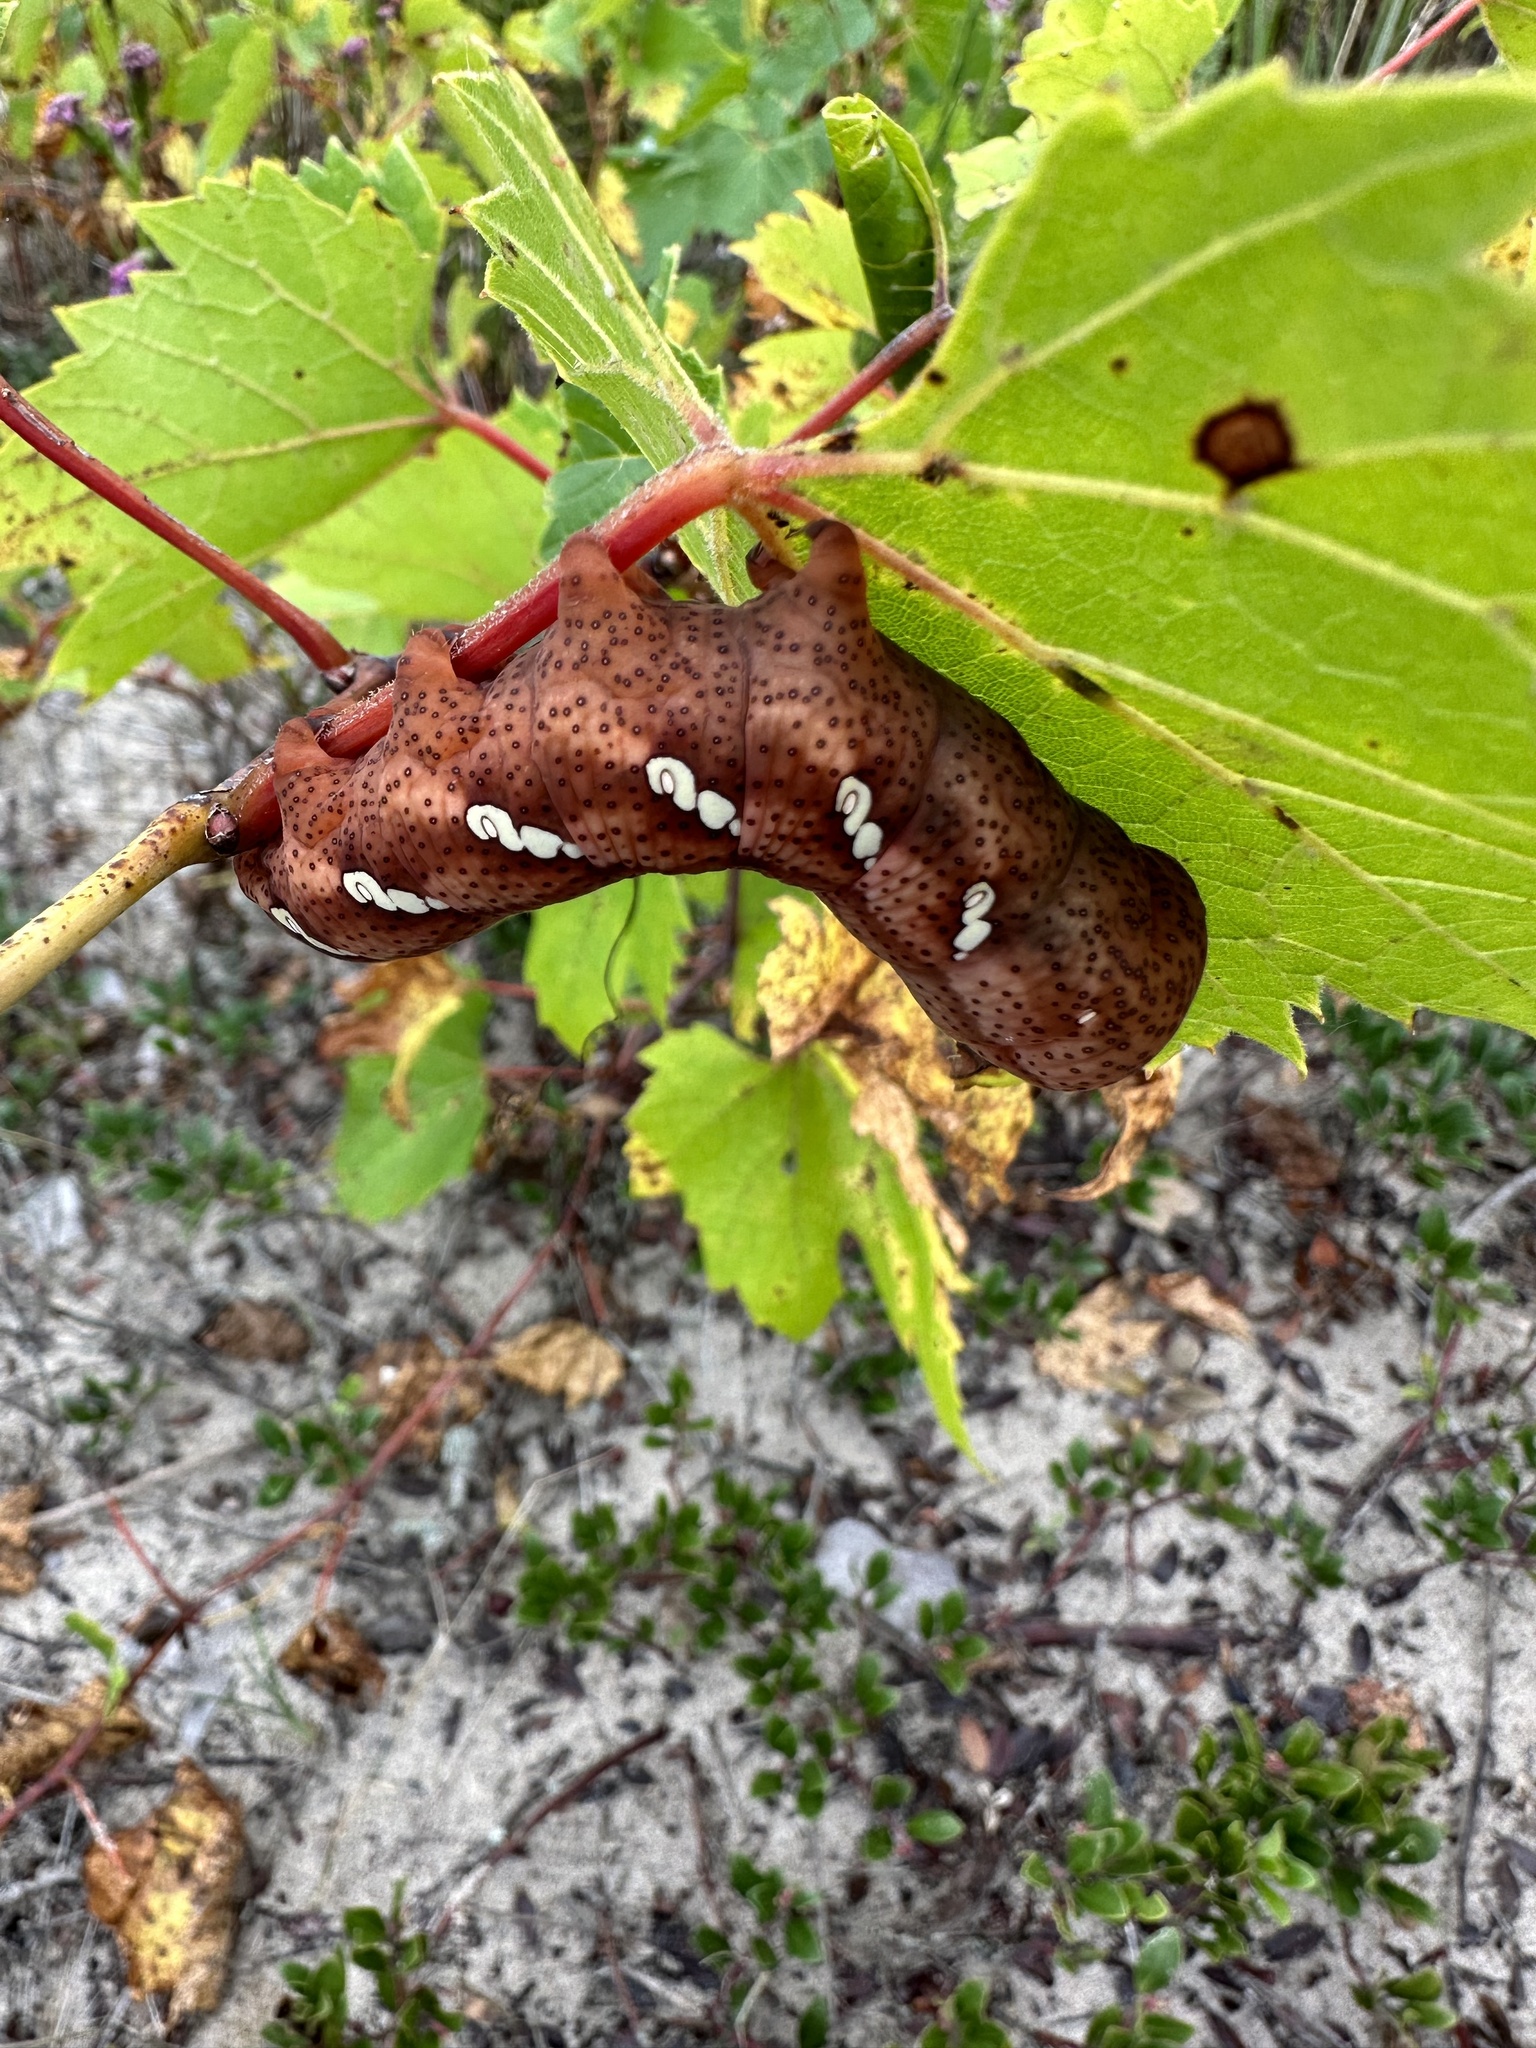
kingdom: Animalia
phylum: Arthropoda
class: Insecta
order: Lepidoptera
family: Sphingidae
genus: Eumorpha
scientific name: Eumorpha achemon
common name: Achemon sphinx
